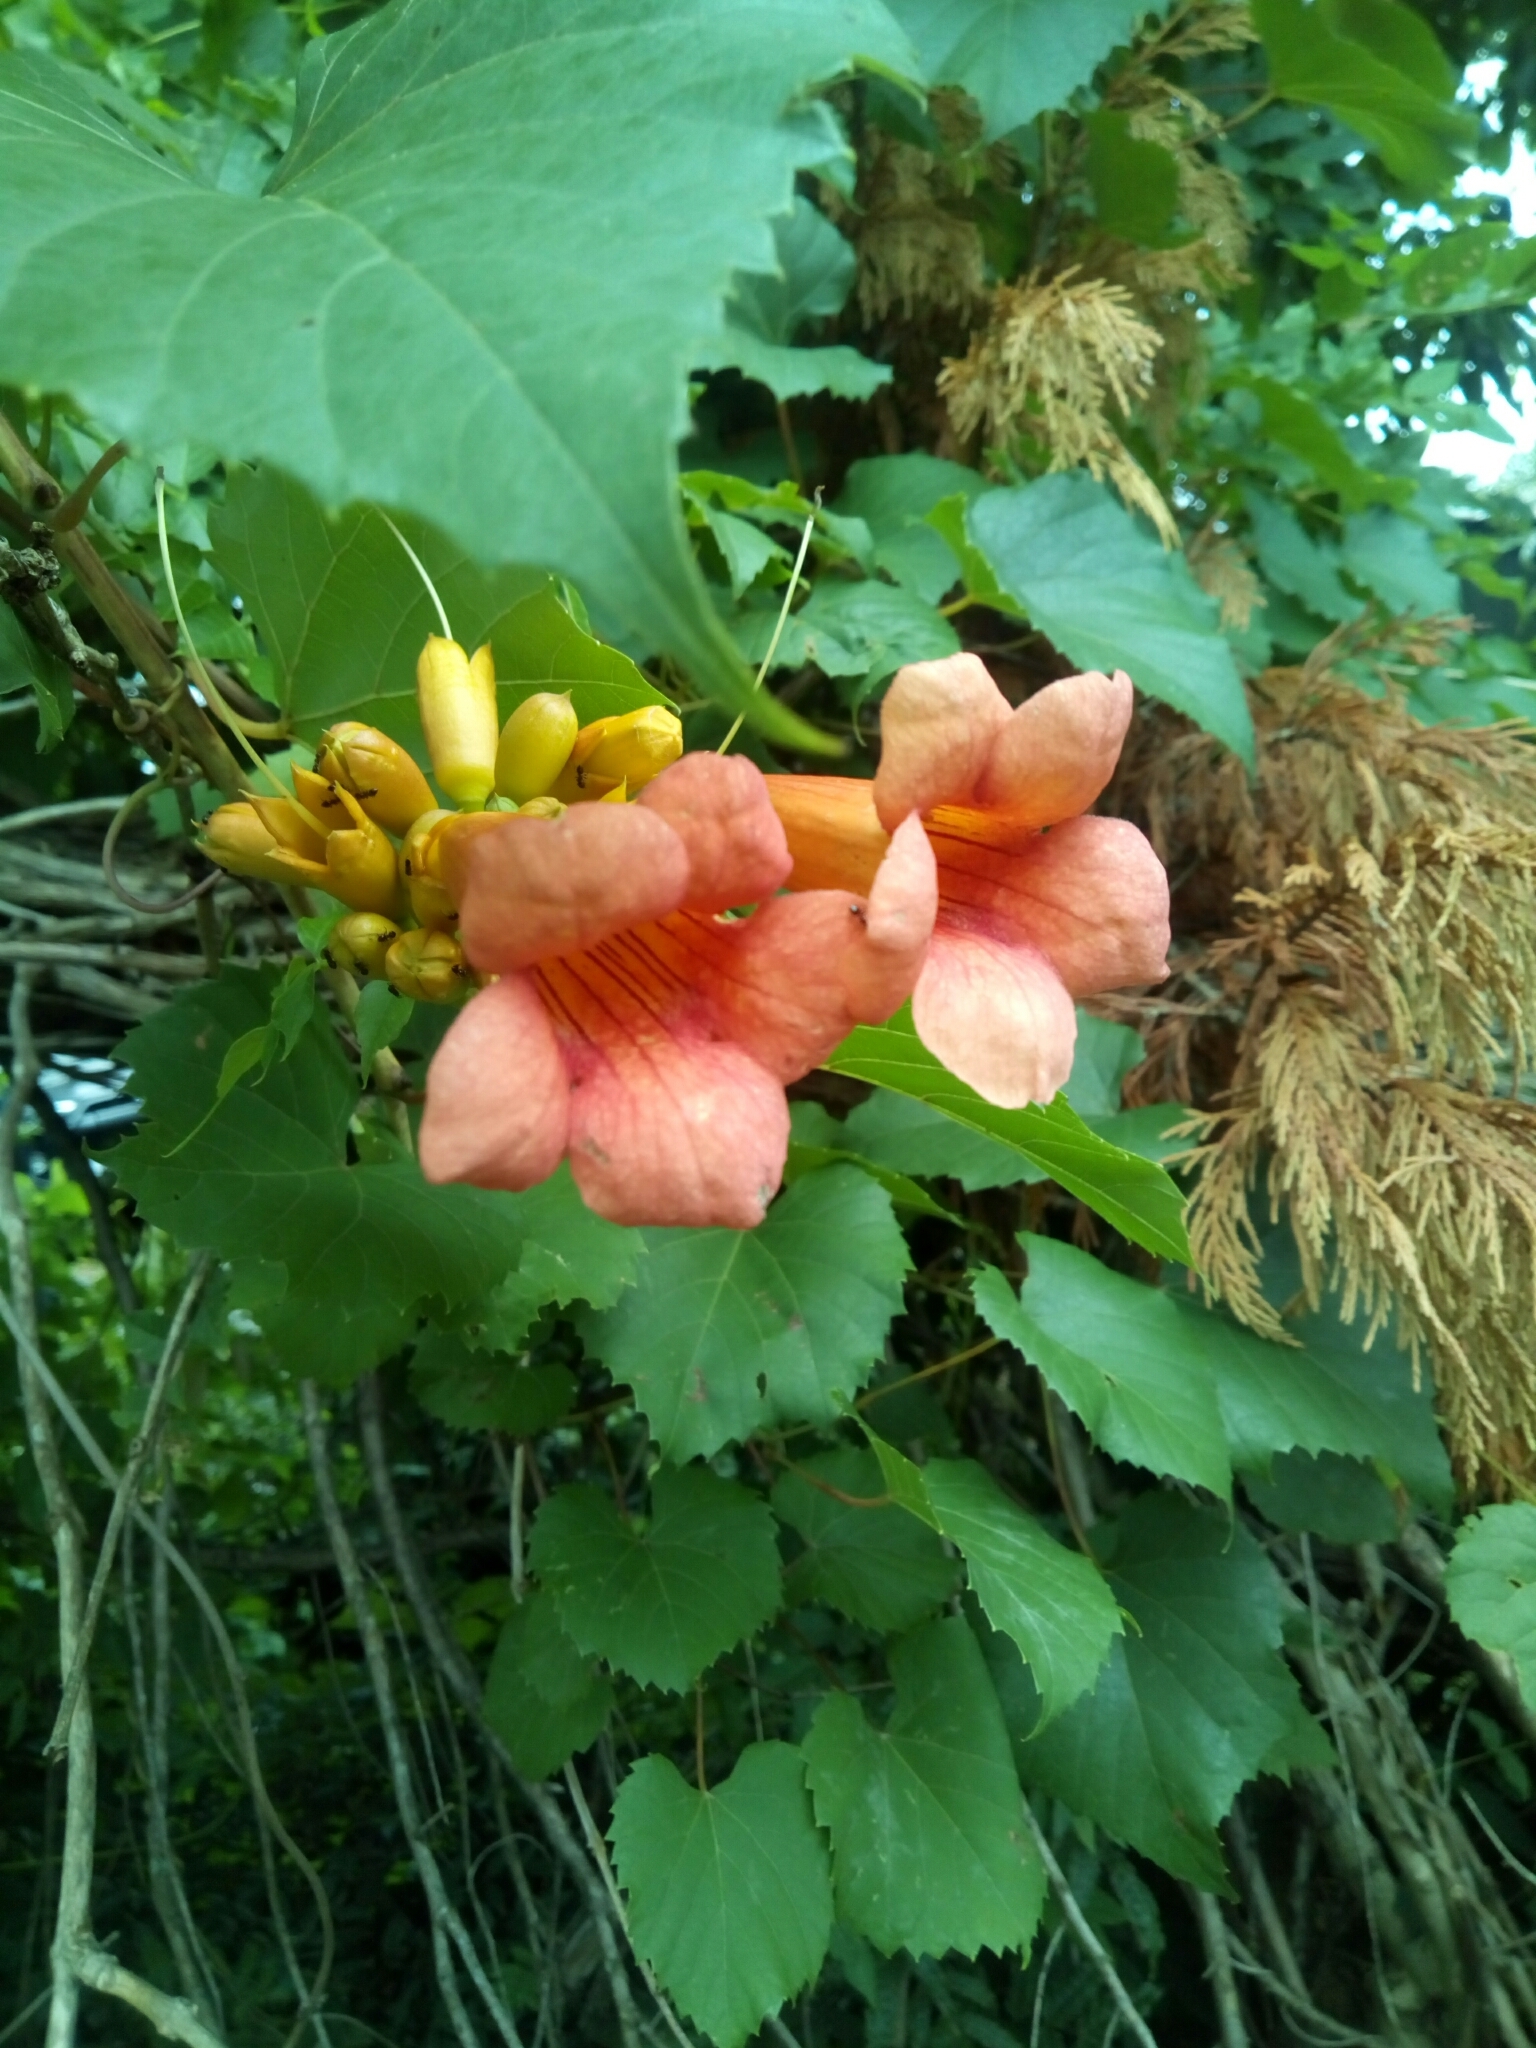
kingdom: Plantae
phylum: Tracheophyta
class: Magnoliopsida
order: Lamiales
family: Bignoniaceae
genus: Campsis
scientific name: Campsis radicans
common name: Trumpet-creeper
